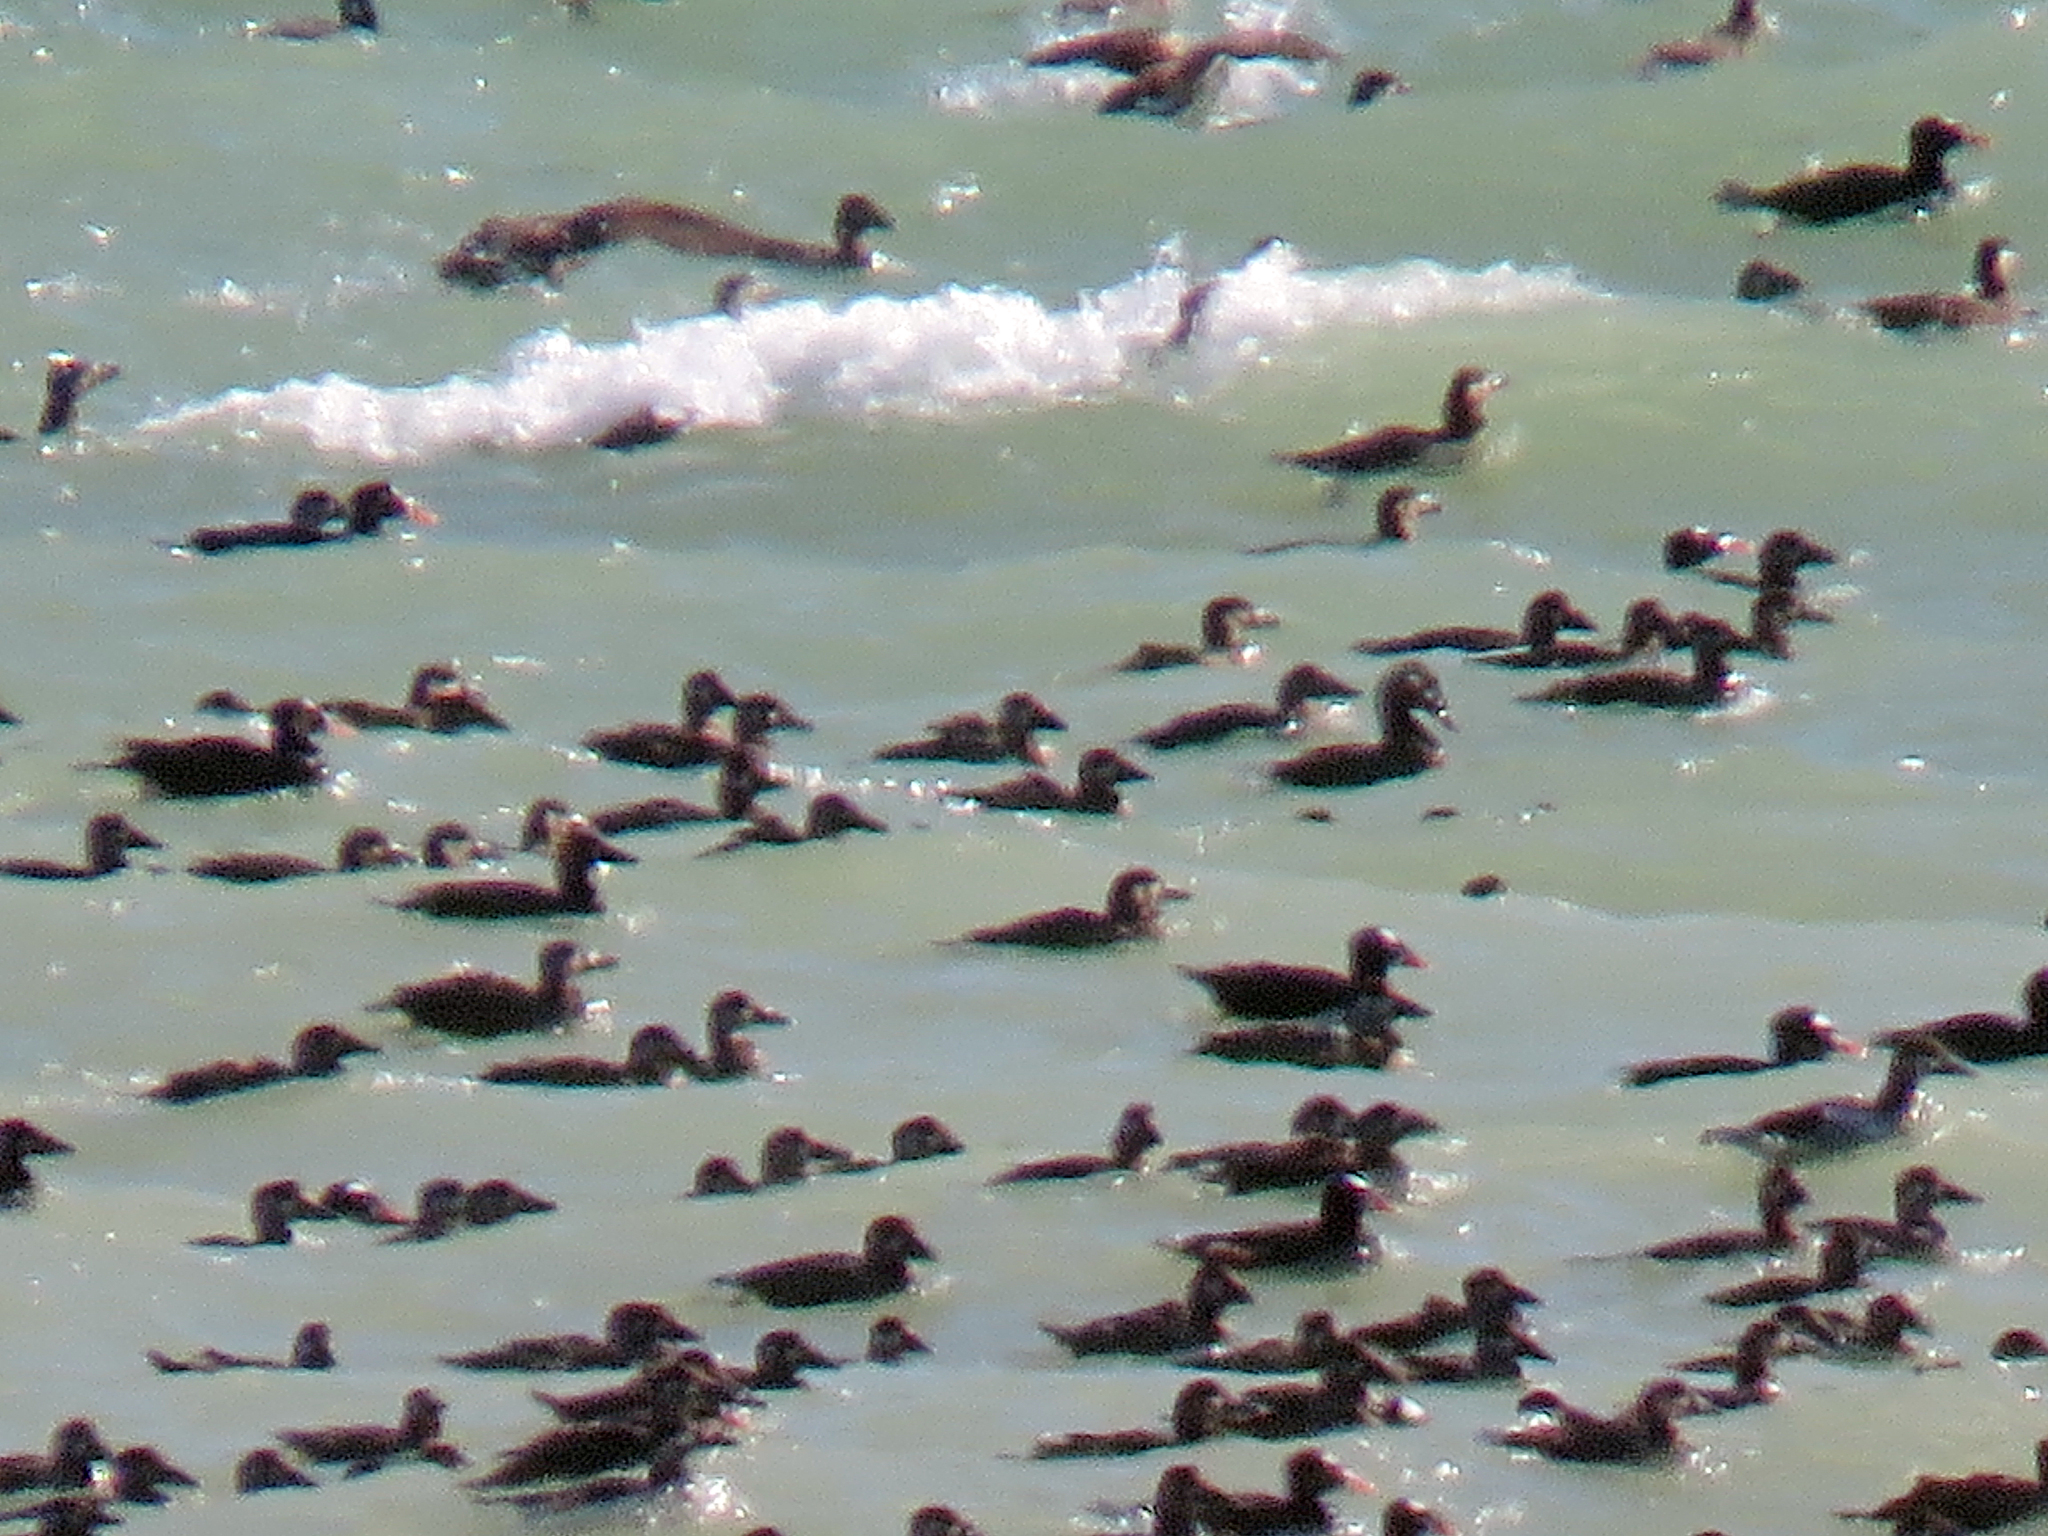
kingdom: Animalia
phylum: Chordata
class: Aves
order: Anseriformes
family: Anatidae
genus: Melanitta
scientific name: Melanitta perspicillata
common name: Surf scoter
